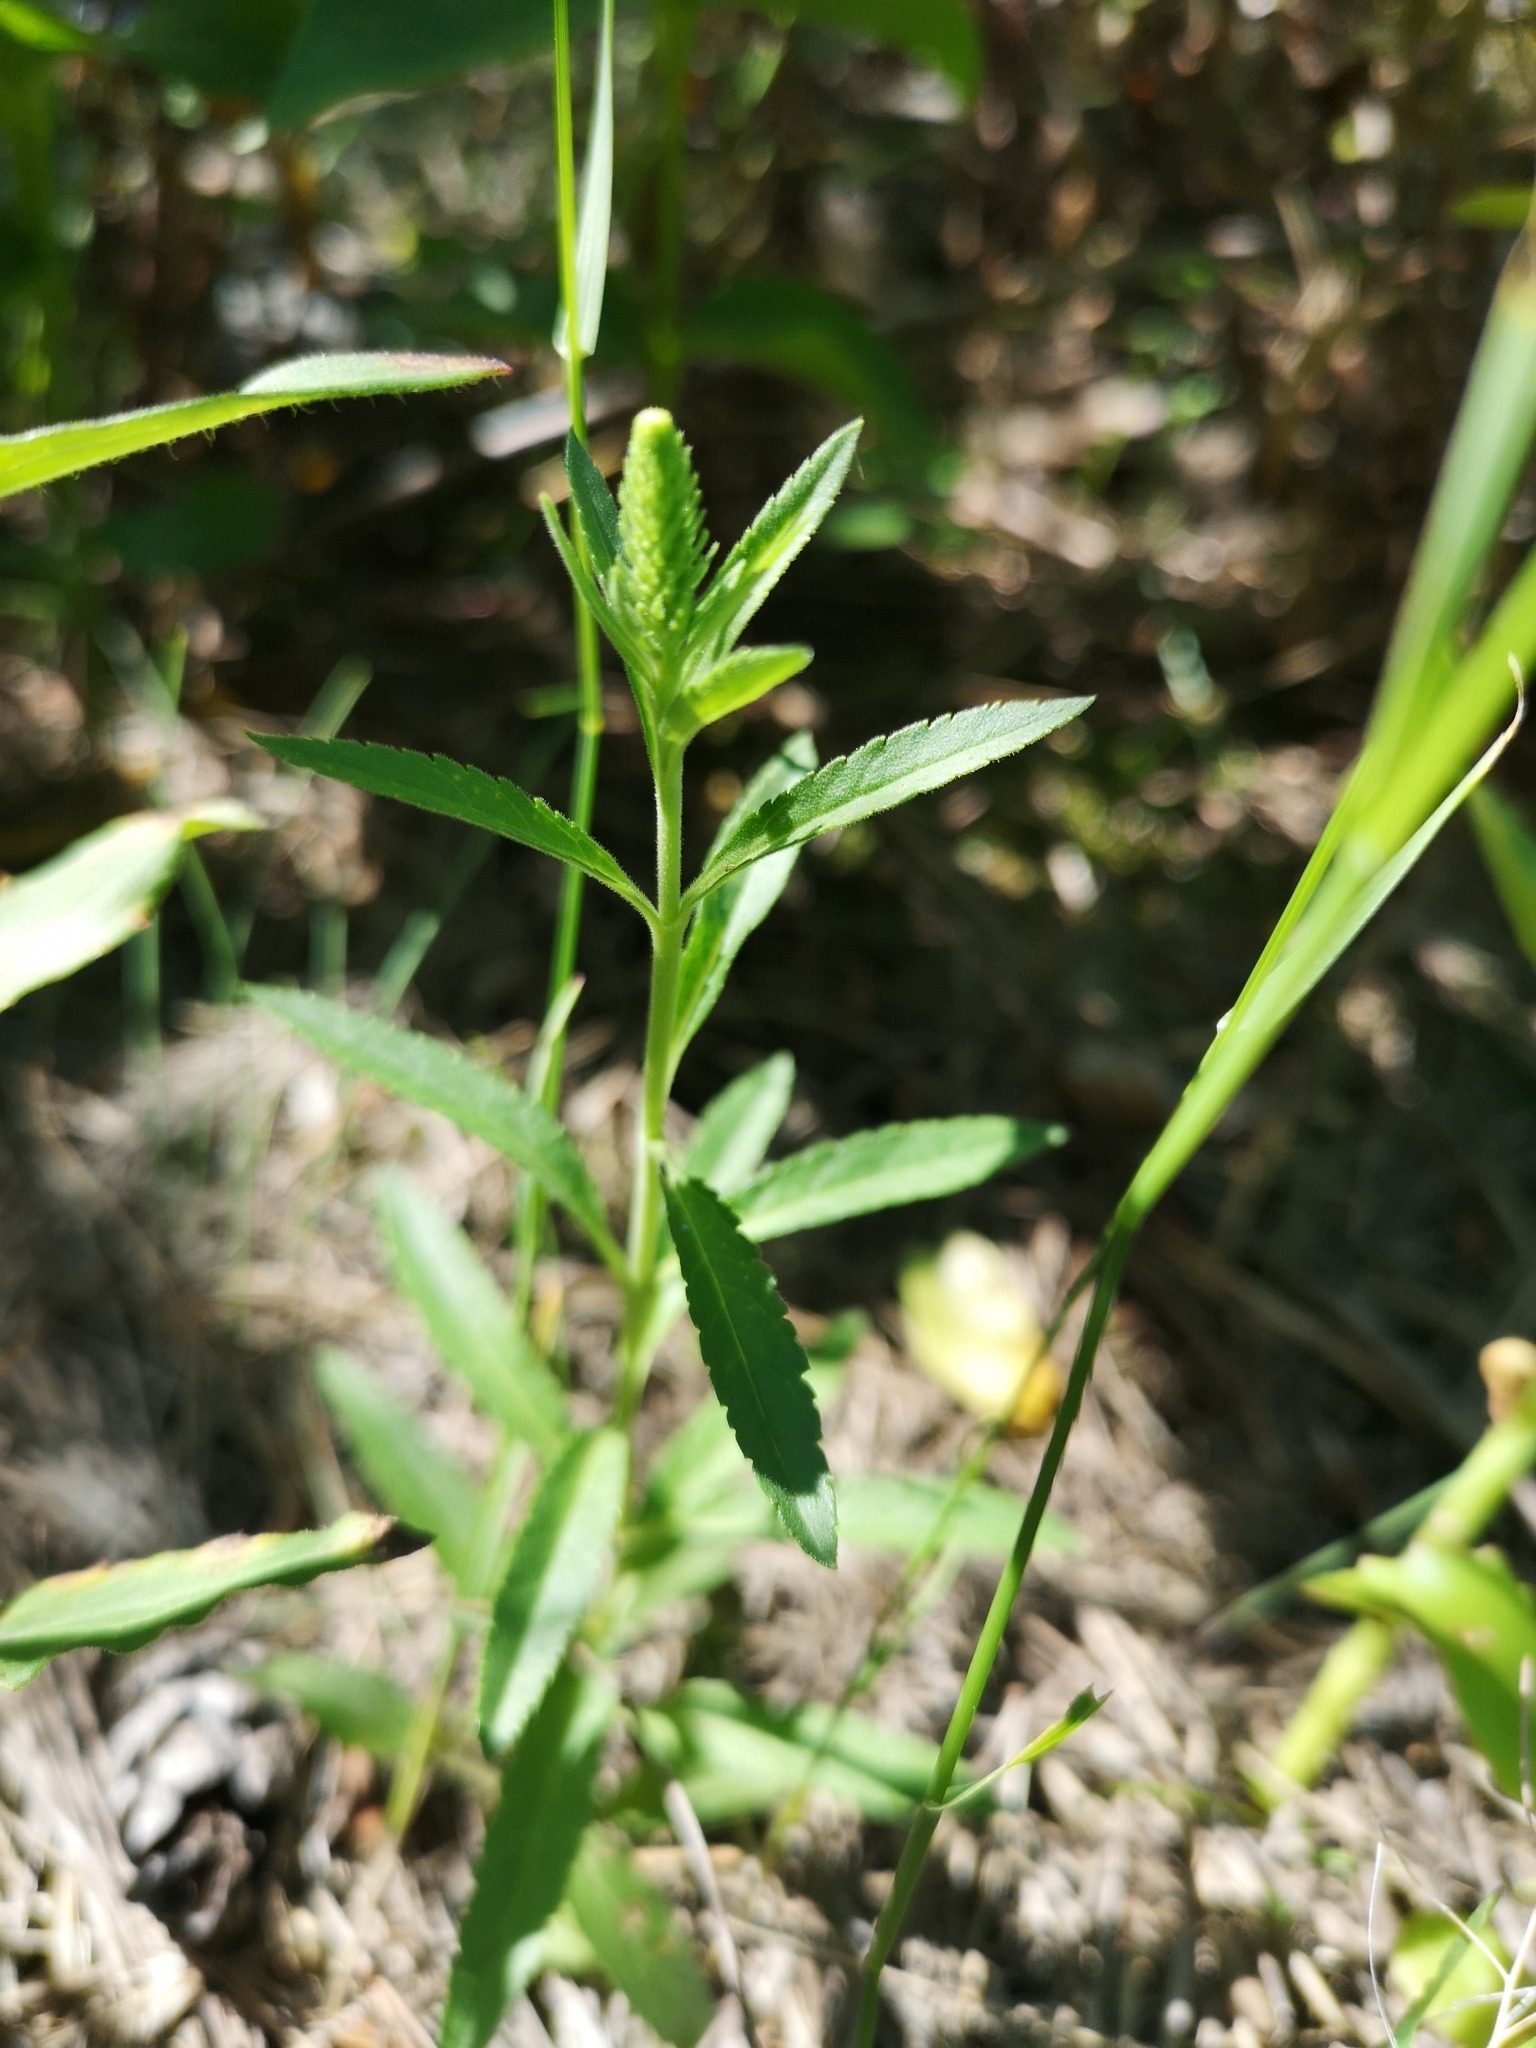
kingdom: Plantae
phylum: Tracheophyta
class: Magnoliopsida
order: Lamiales
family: Plantaginaceae
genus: Veronica
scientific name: Veronica spicata
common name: Spiked speedwell
